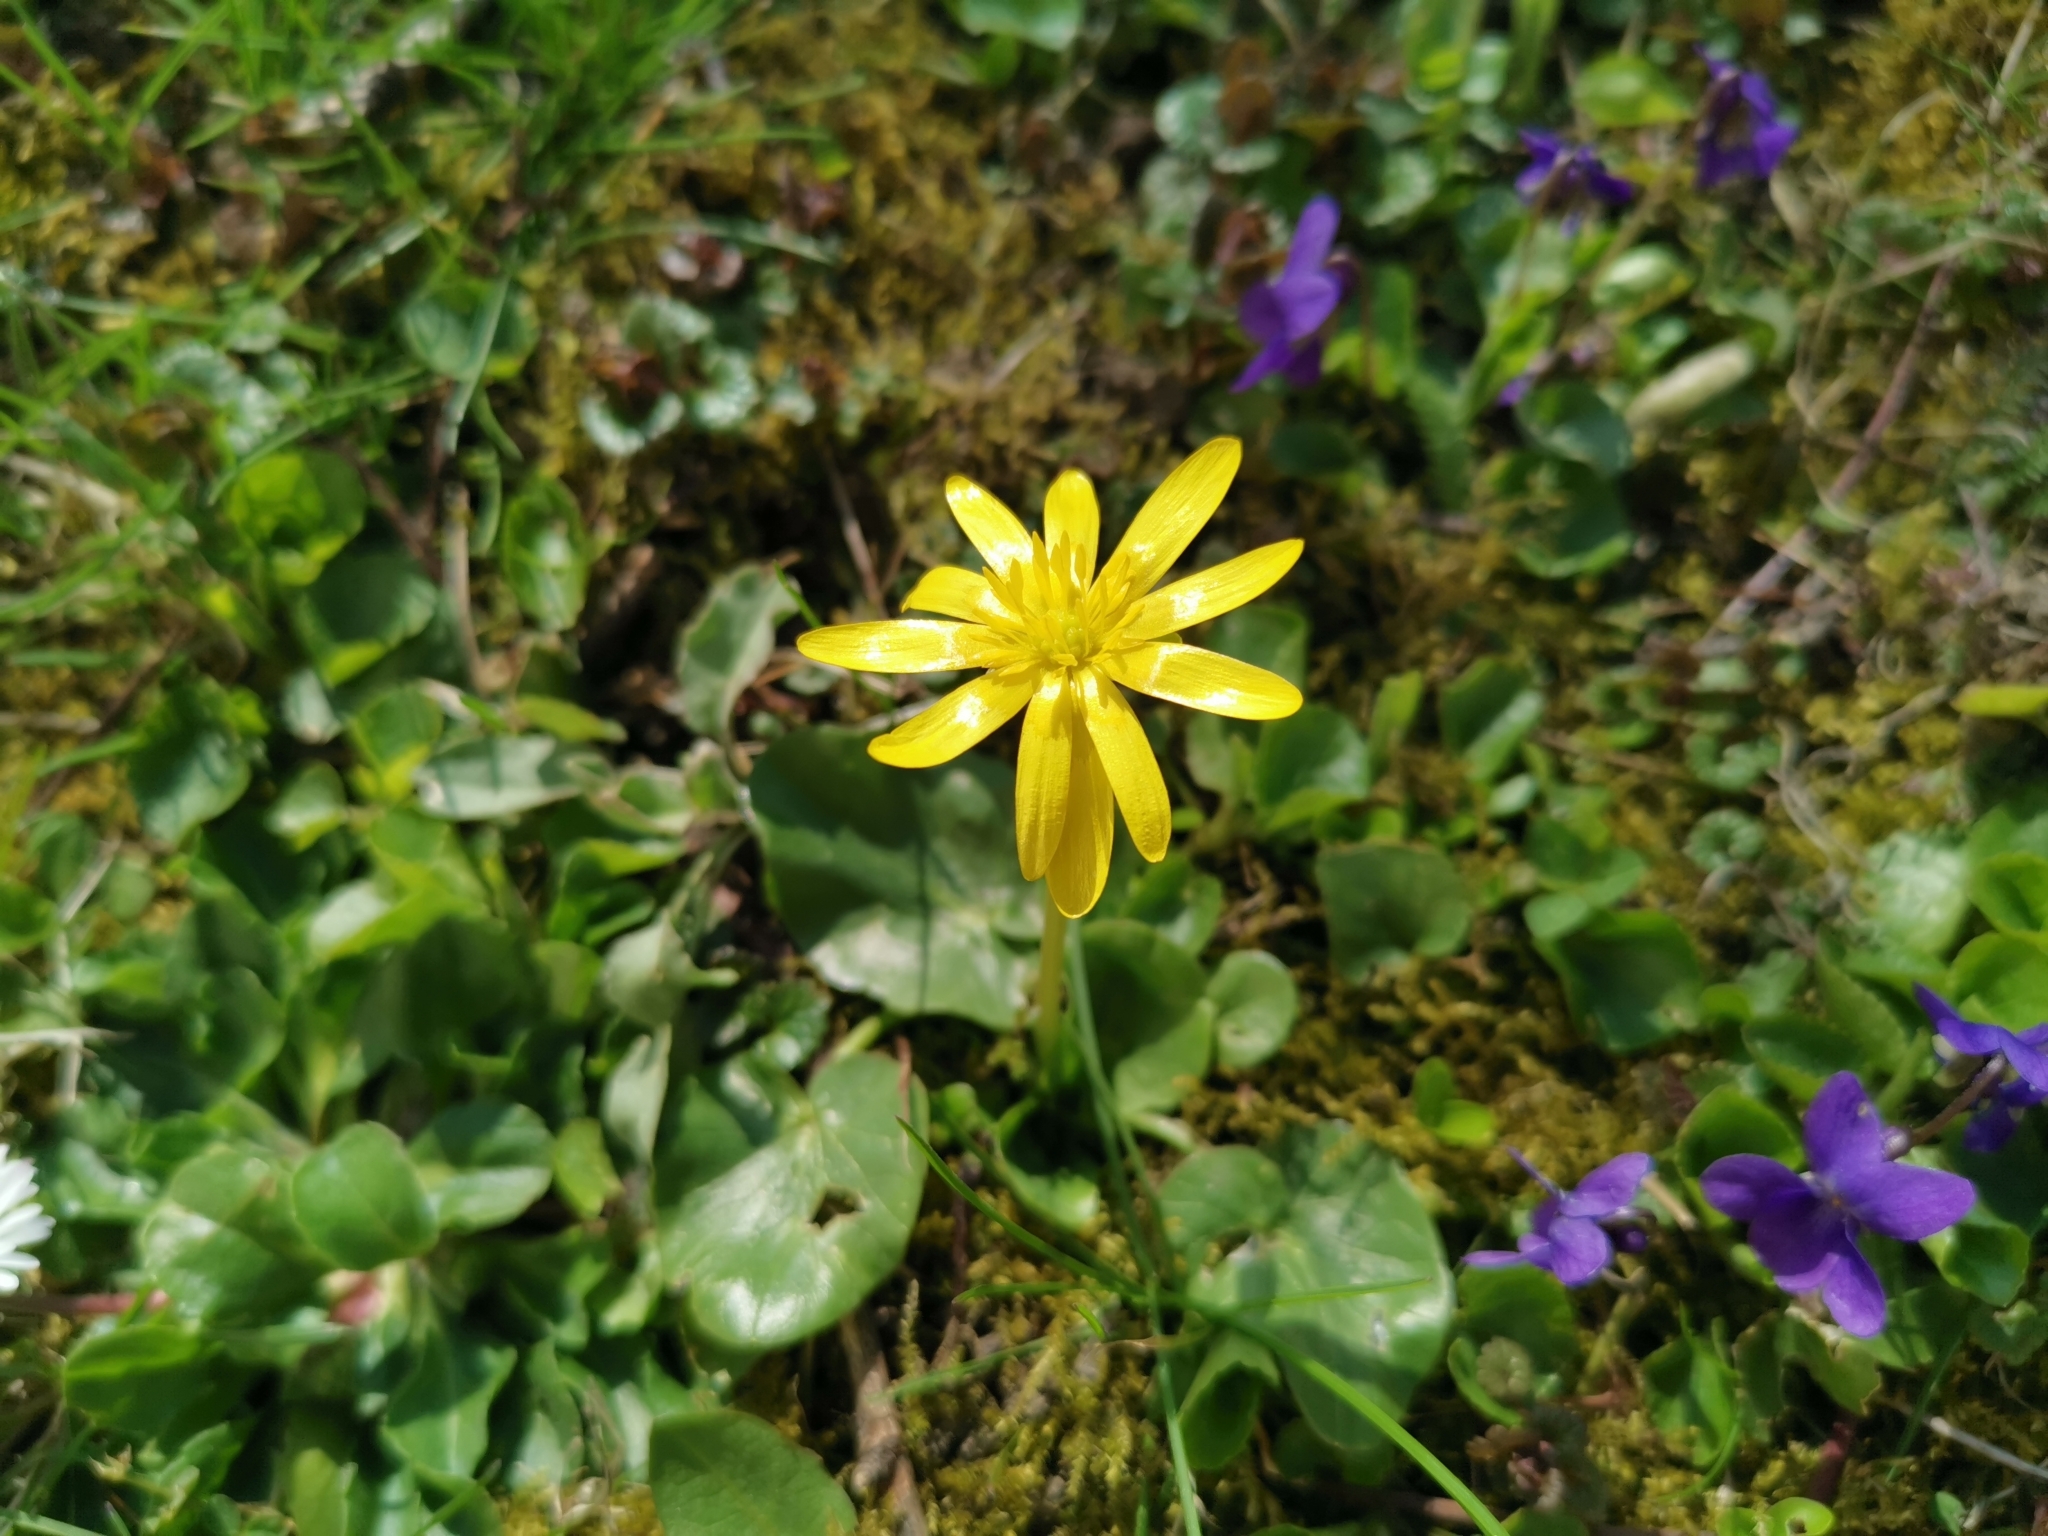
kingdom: Plantae
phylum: Tracheophyta
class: Magnoliopsida
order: Ranunculales
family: Ranunculaceae
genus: Ficaria
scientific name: Ficaria verna
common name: Lesser celandine
